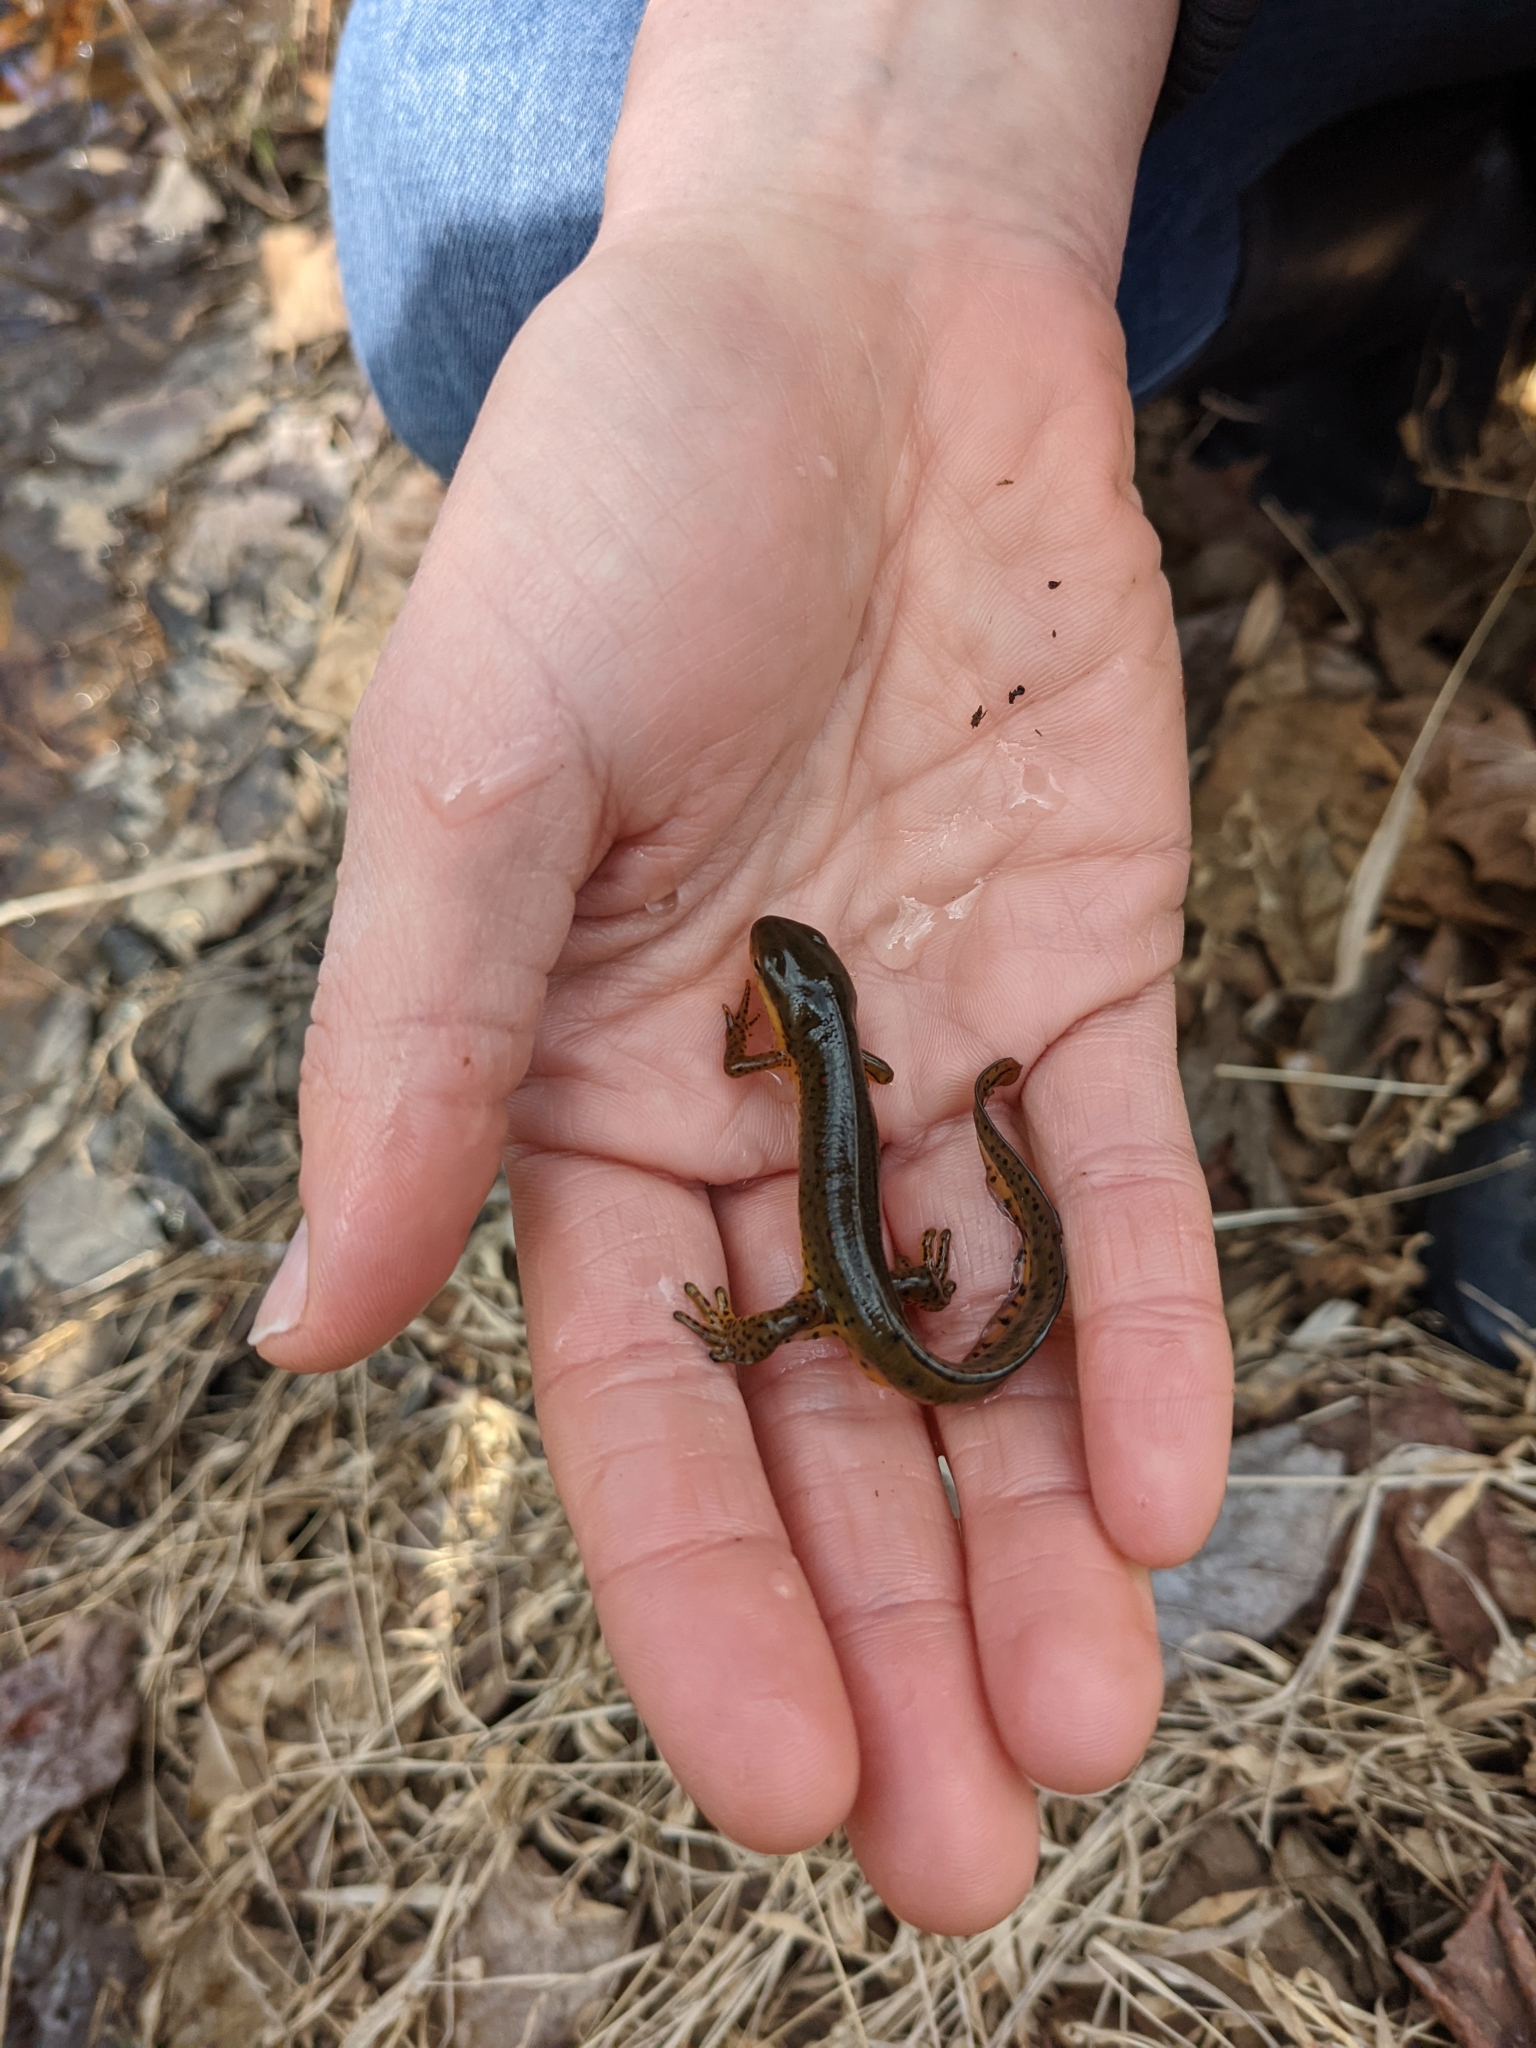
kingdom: Animalia
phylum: Chordata
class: Amphibia
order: Caudata
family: Salamandridae
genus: Notophthalmus
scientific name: Notophthalmus viridescens
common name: Eastern newt
